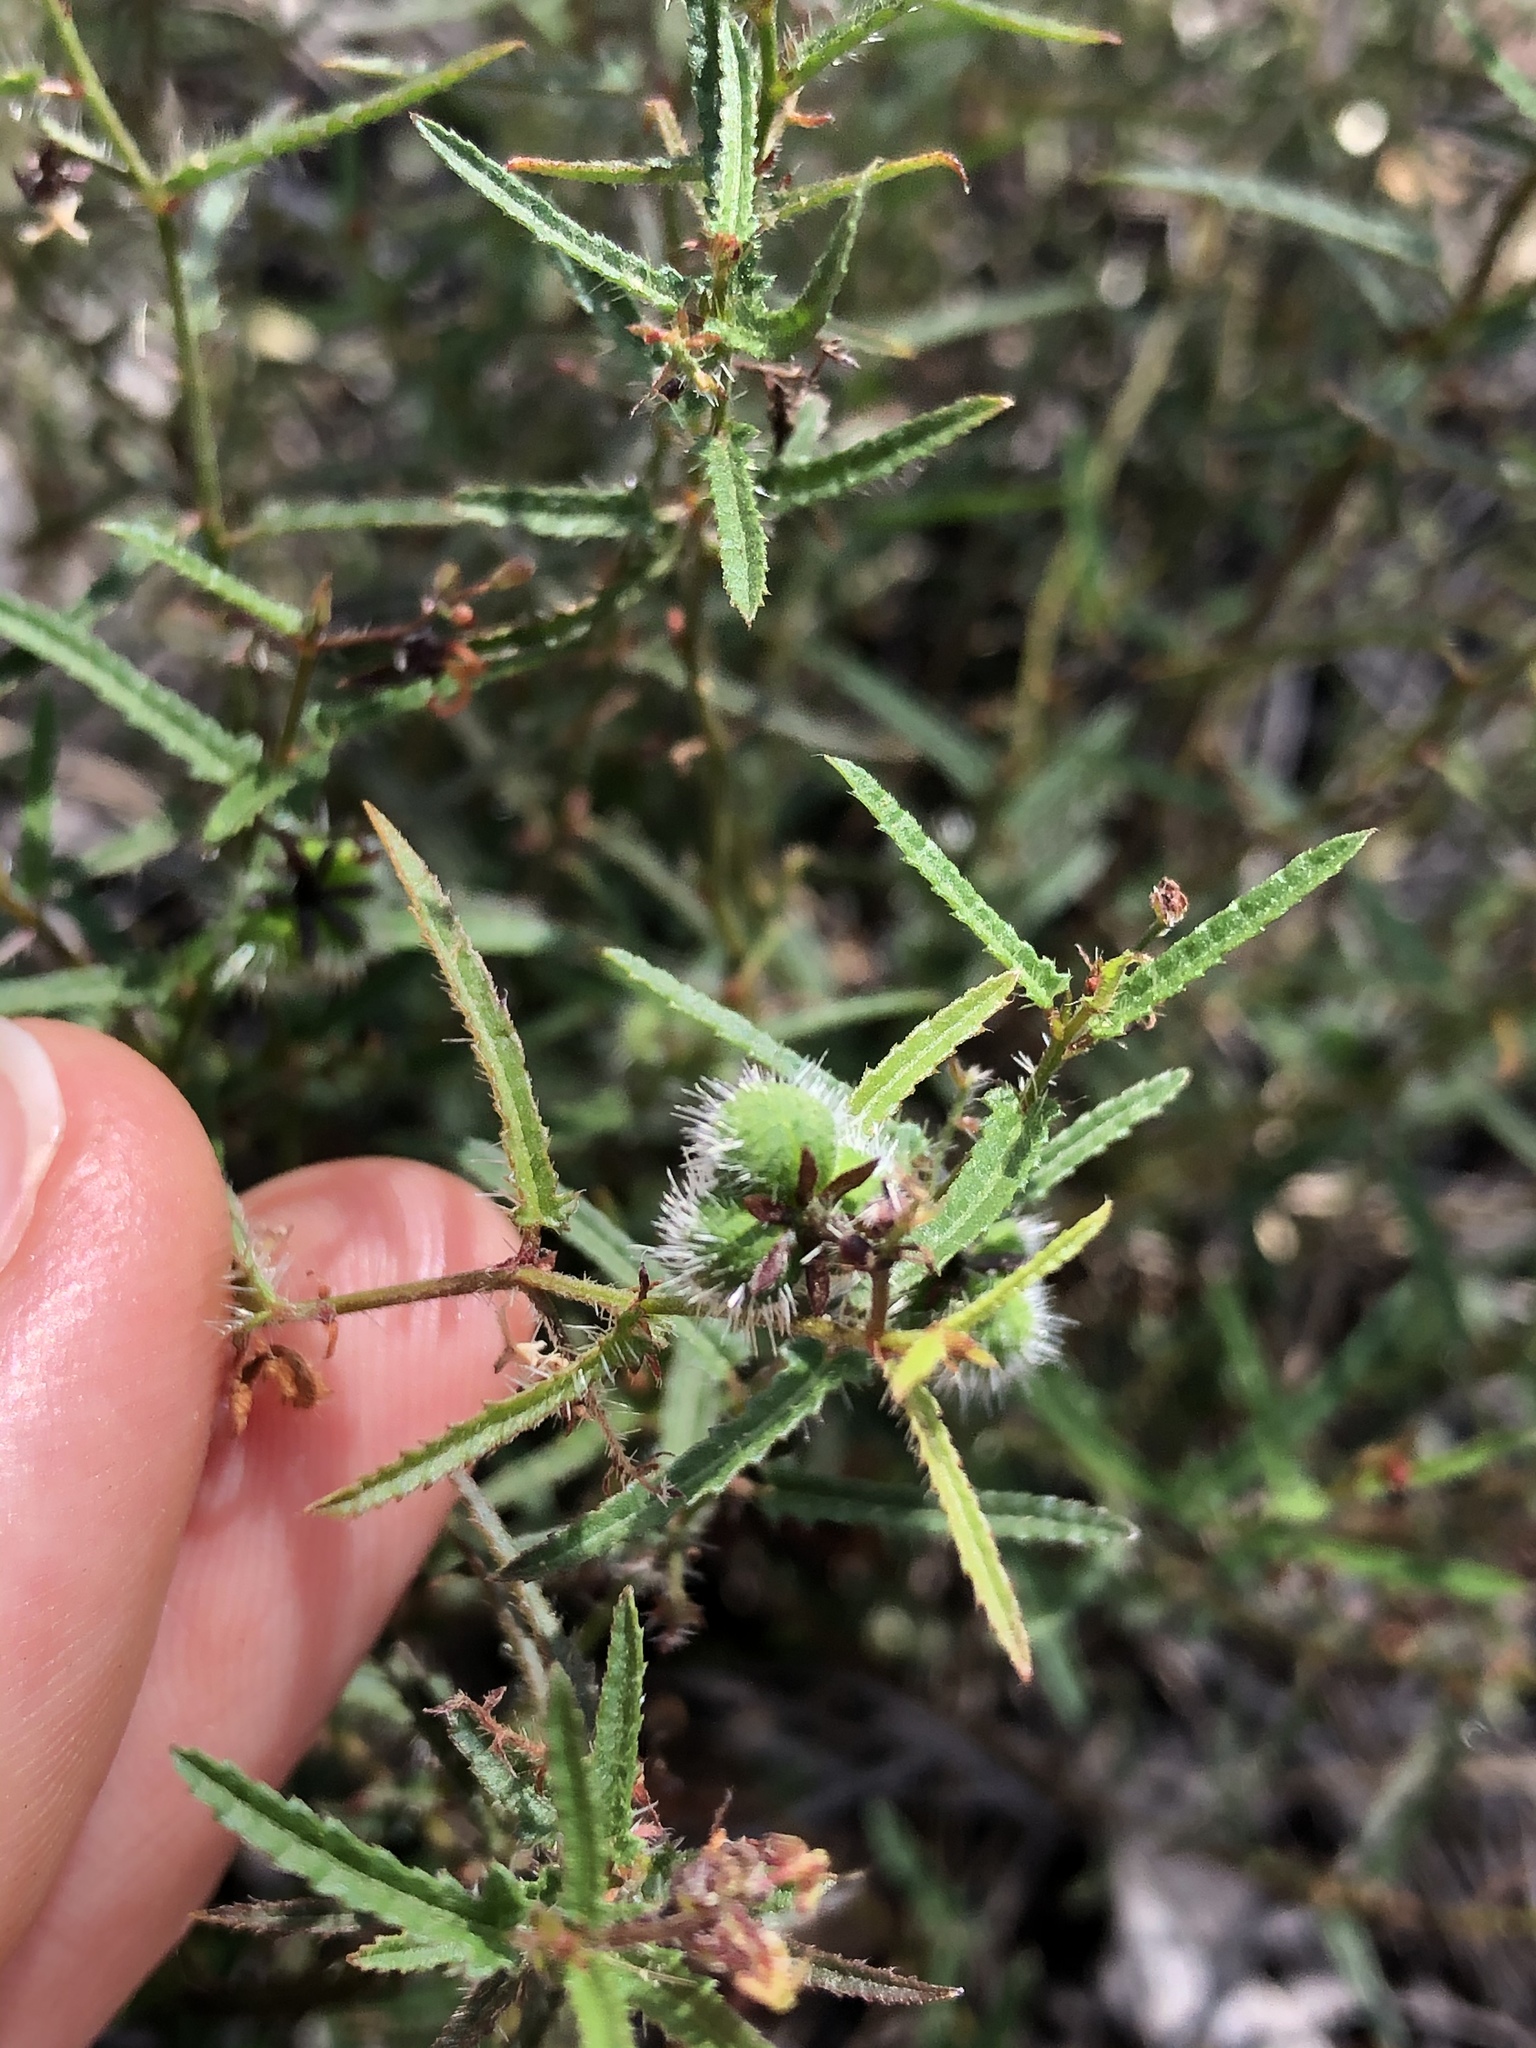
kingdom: Plantae
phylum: Tracheophyta
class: Magnoliopsida
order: Malpighiales
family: Euphorbiaceae
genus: Tragia
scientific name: Tragia ramosa
